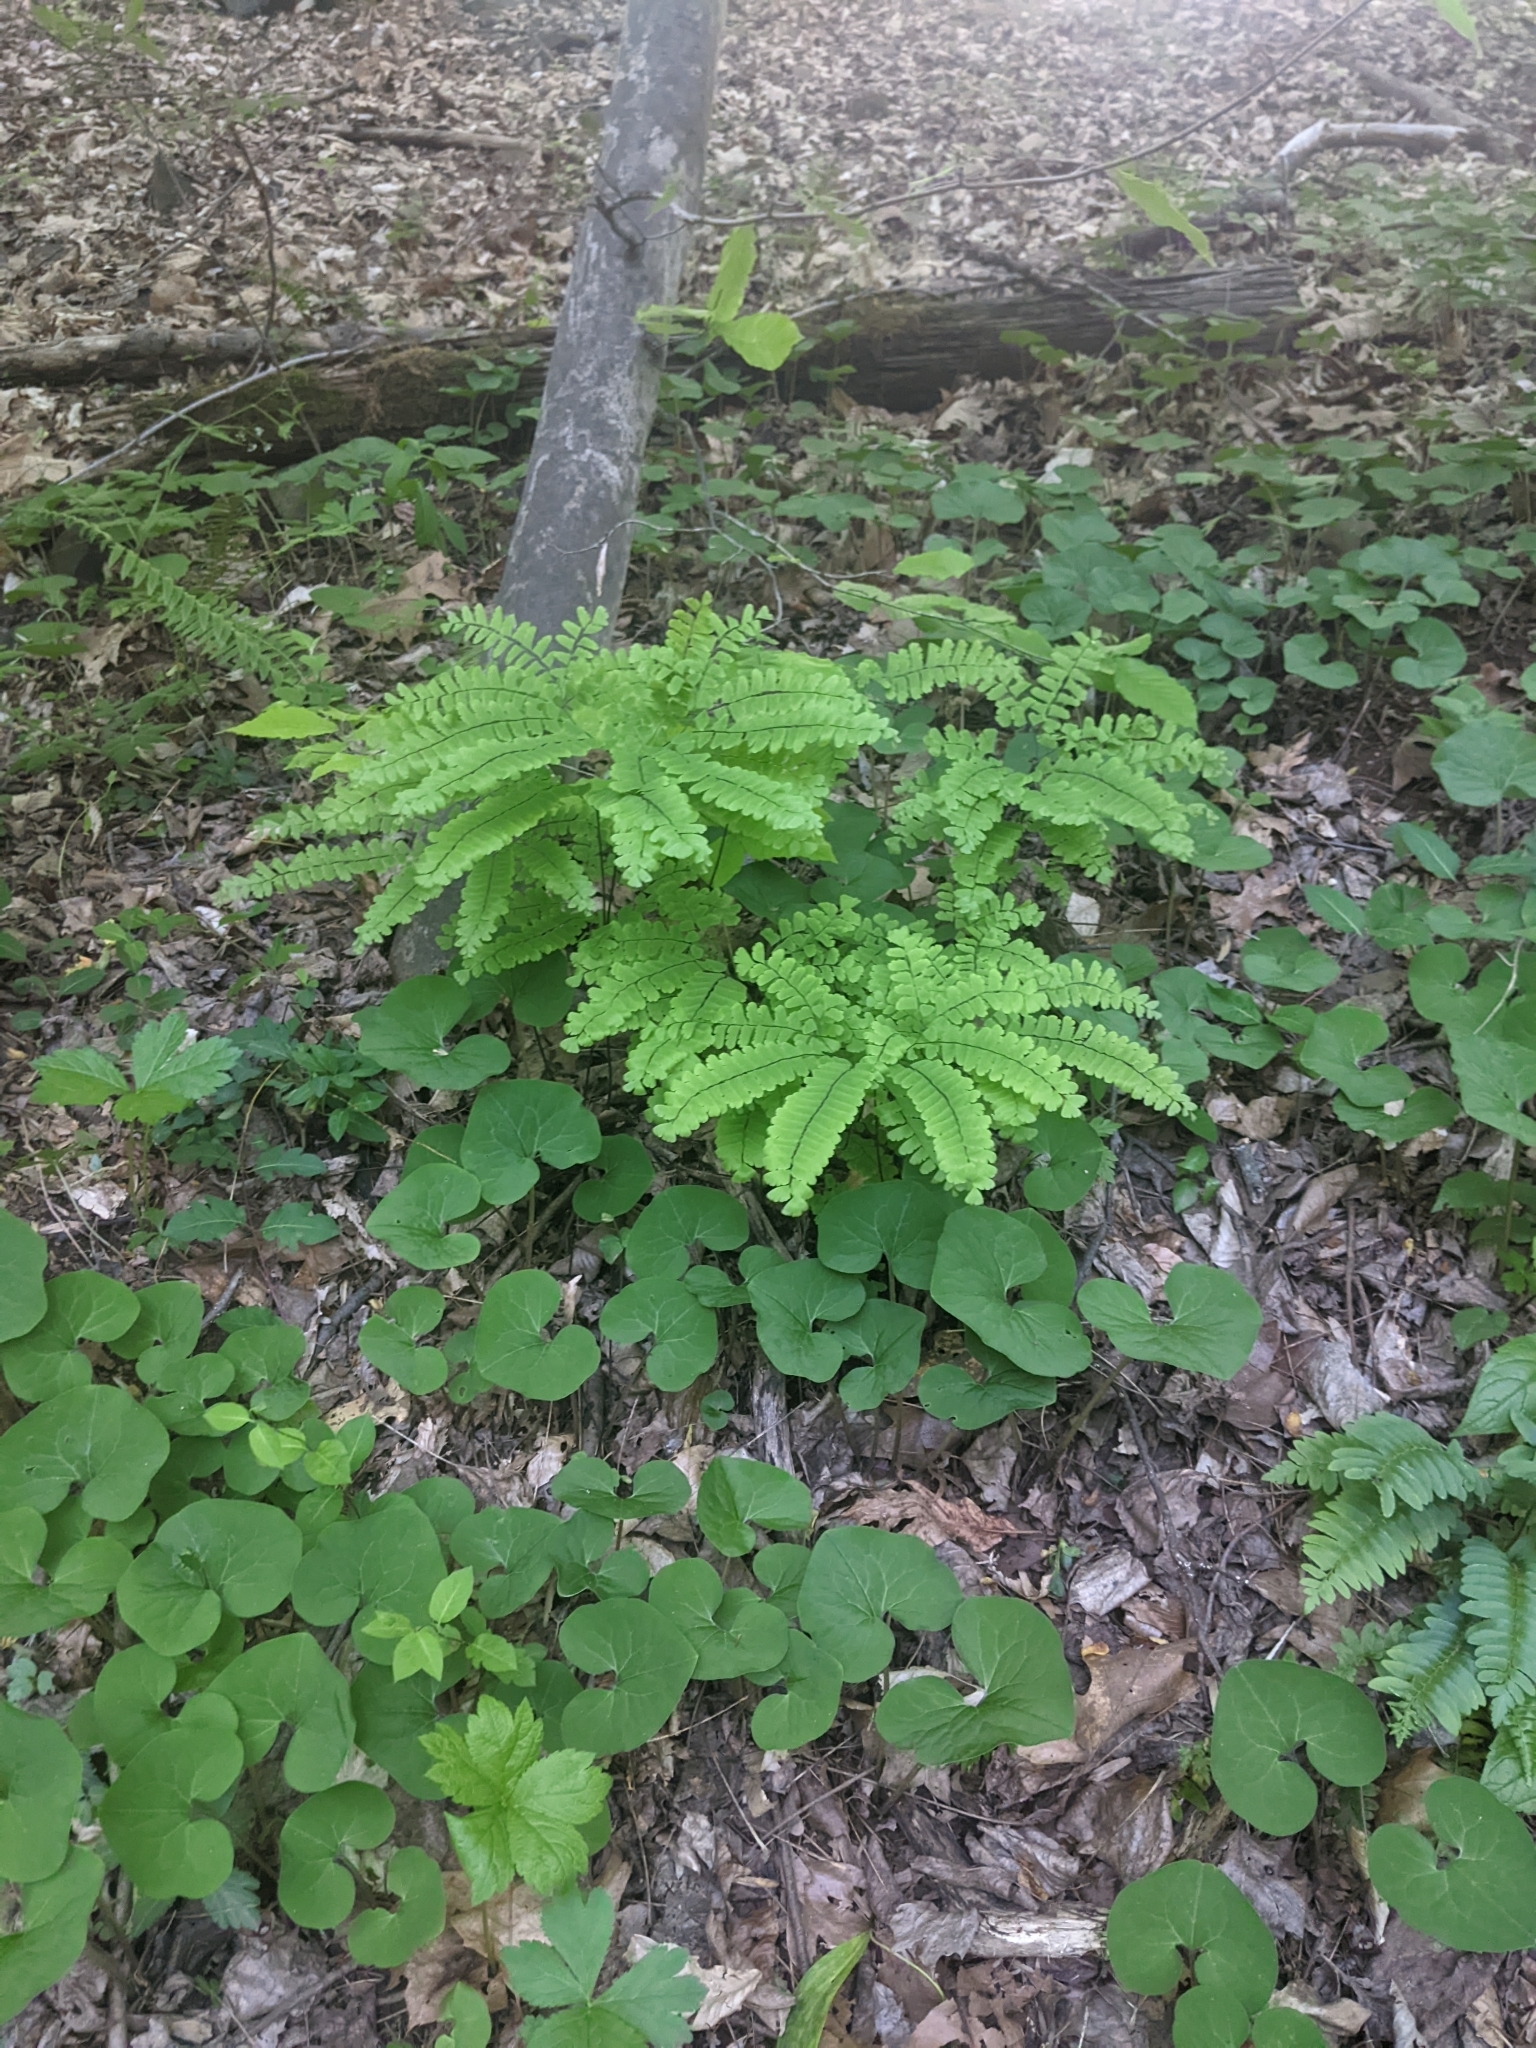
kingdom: Plantae
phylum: Tracheophyta
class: Polypodiopsida
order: Polypodiales
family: Pteridaceae
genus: Adiantum
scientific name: Adiantum pedatum
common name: Five-finger fern
